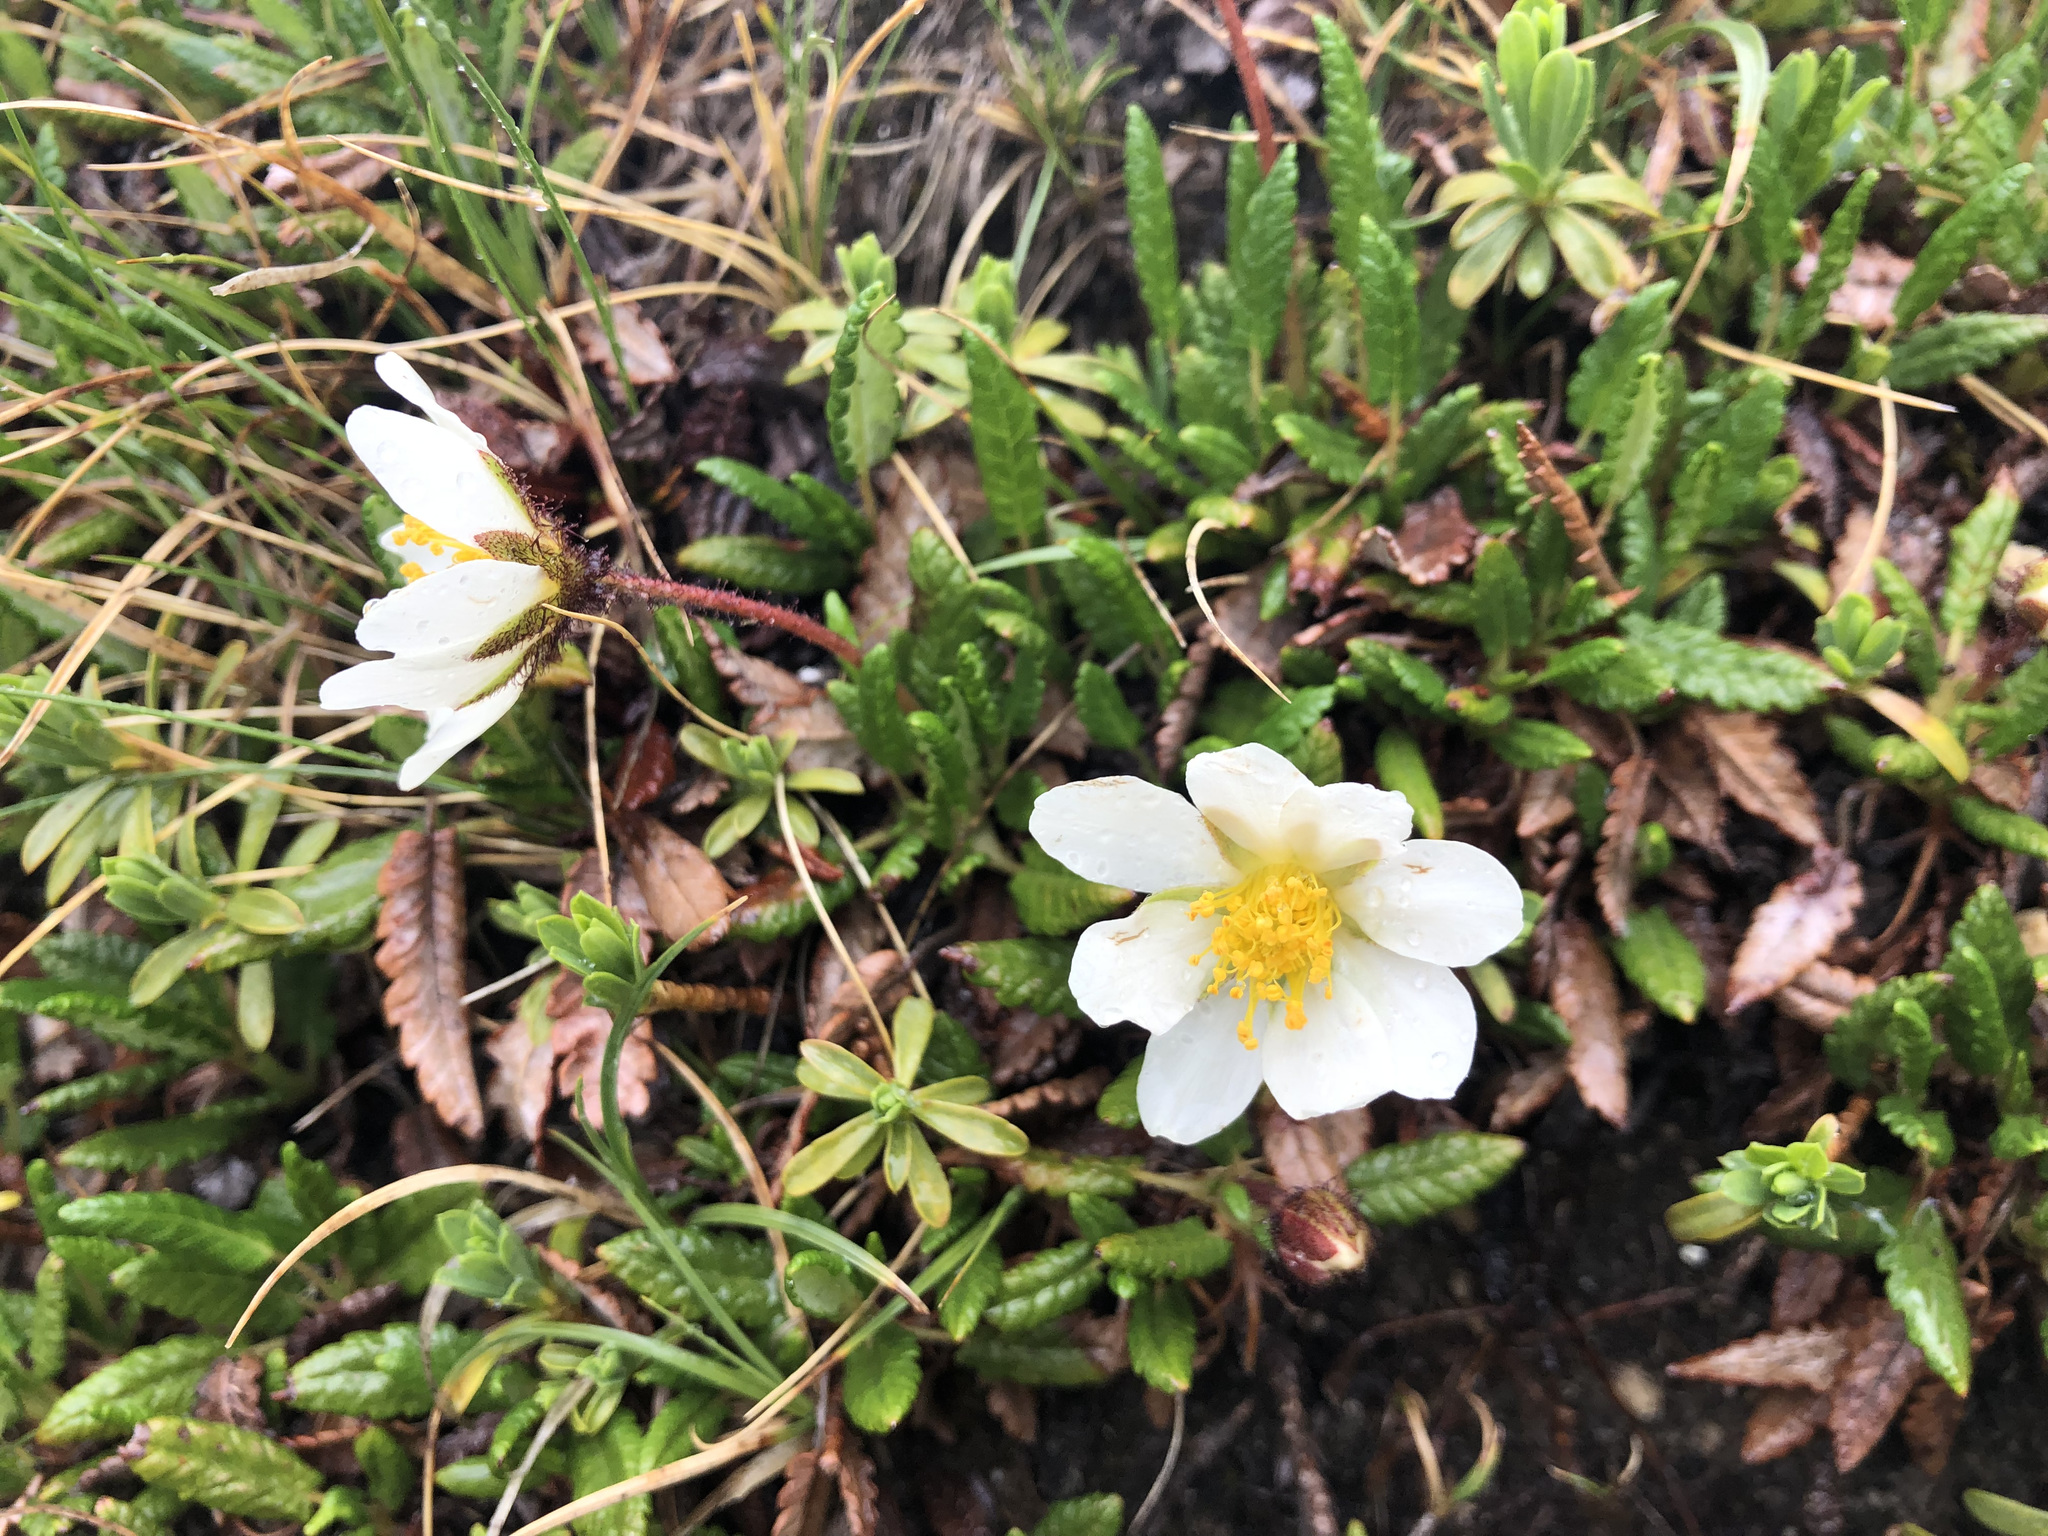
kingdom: Plantae
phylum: Tracheophyta
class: Magnoliopsida
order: Rosales
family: Rosaceae
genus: Dryas
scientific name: Dryas octopetala
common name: Eight-petal mountain-avens
